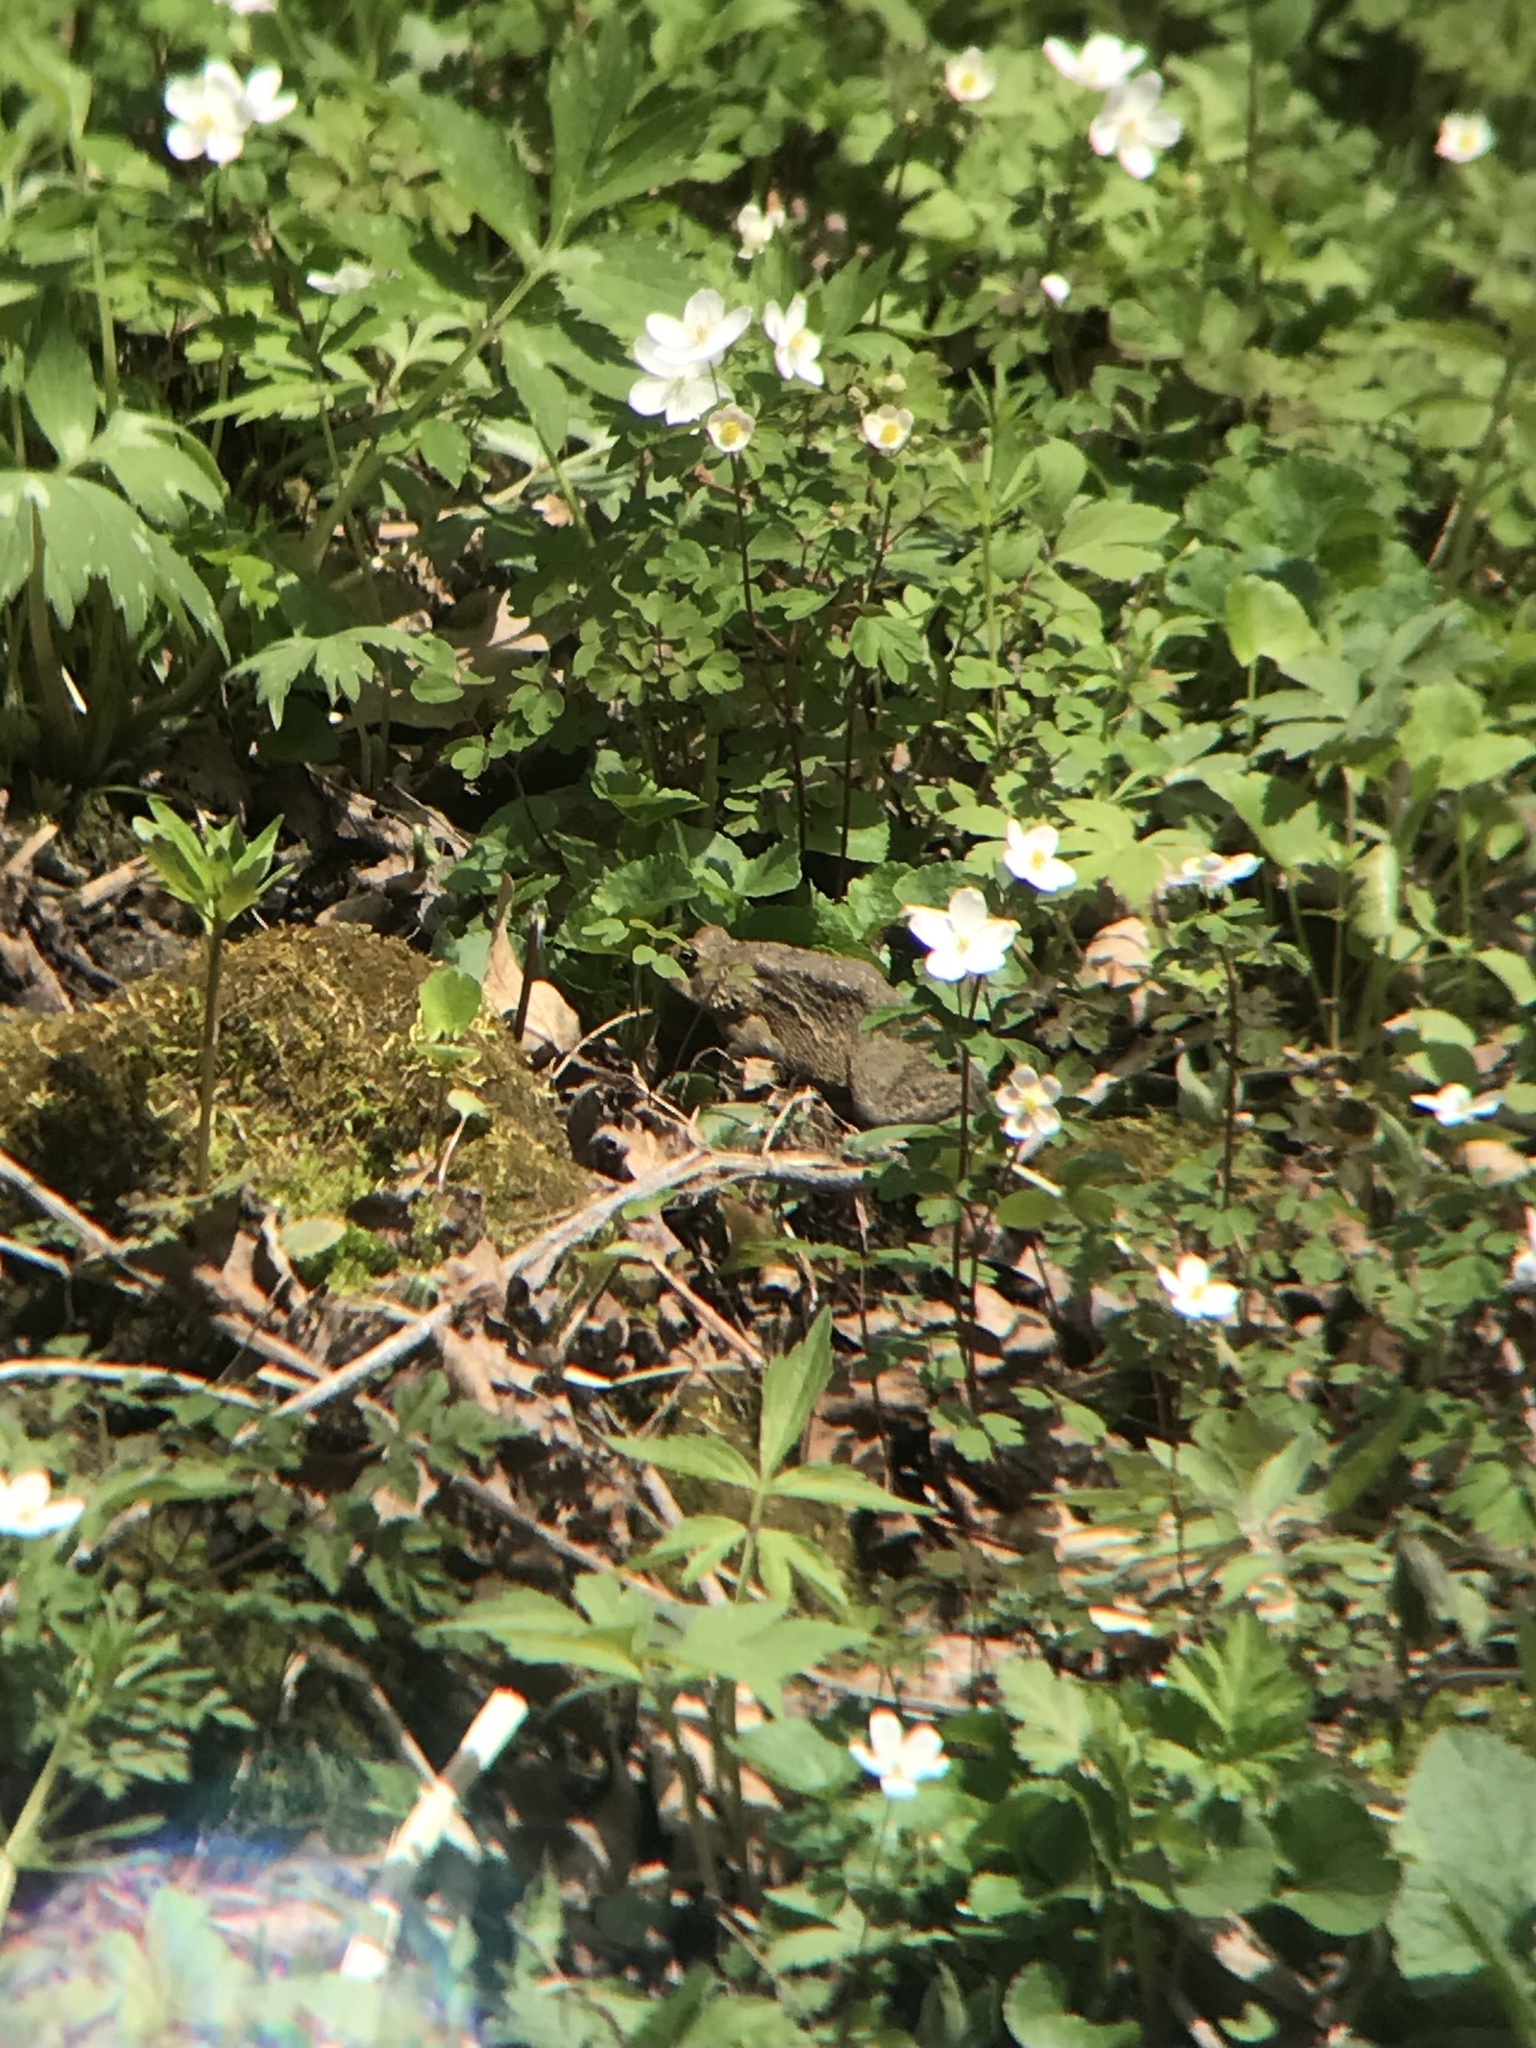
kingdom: Animalia
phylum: Chordata
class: Amphibia
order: Anura
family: Bufonidae
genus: Anaxyrus
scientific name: Anaxyrus americanus
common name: American toad
